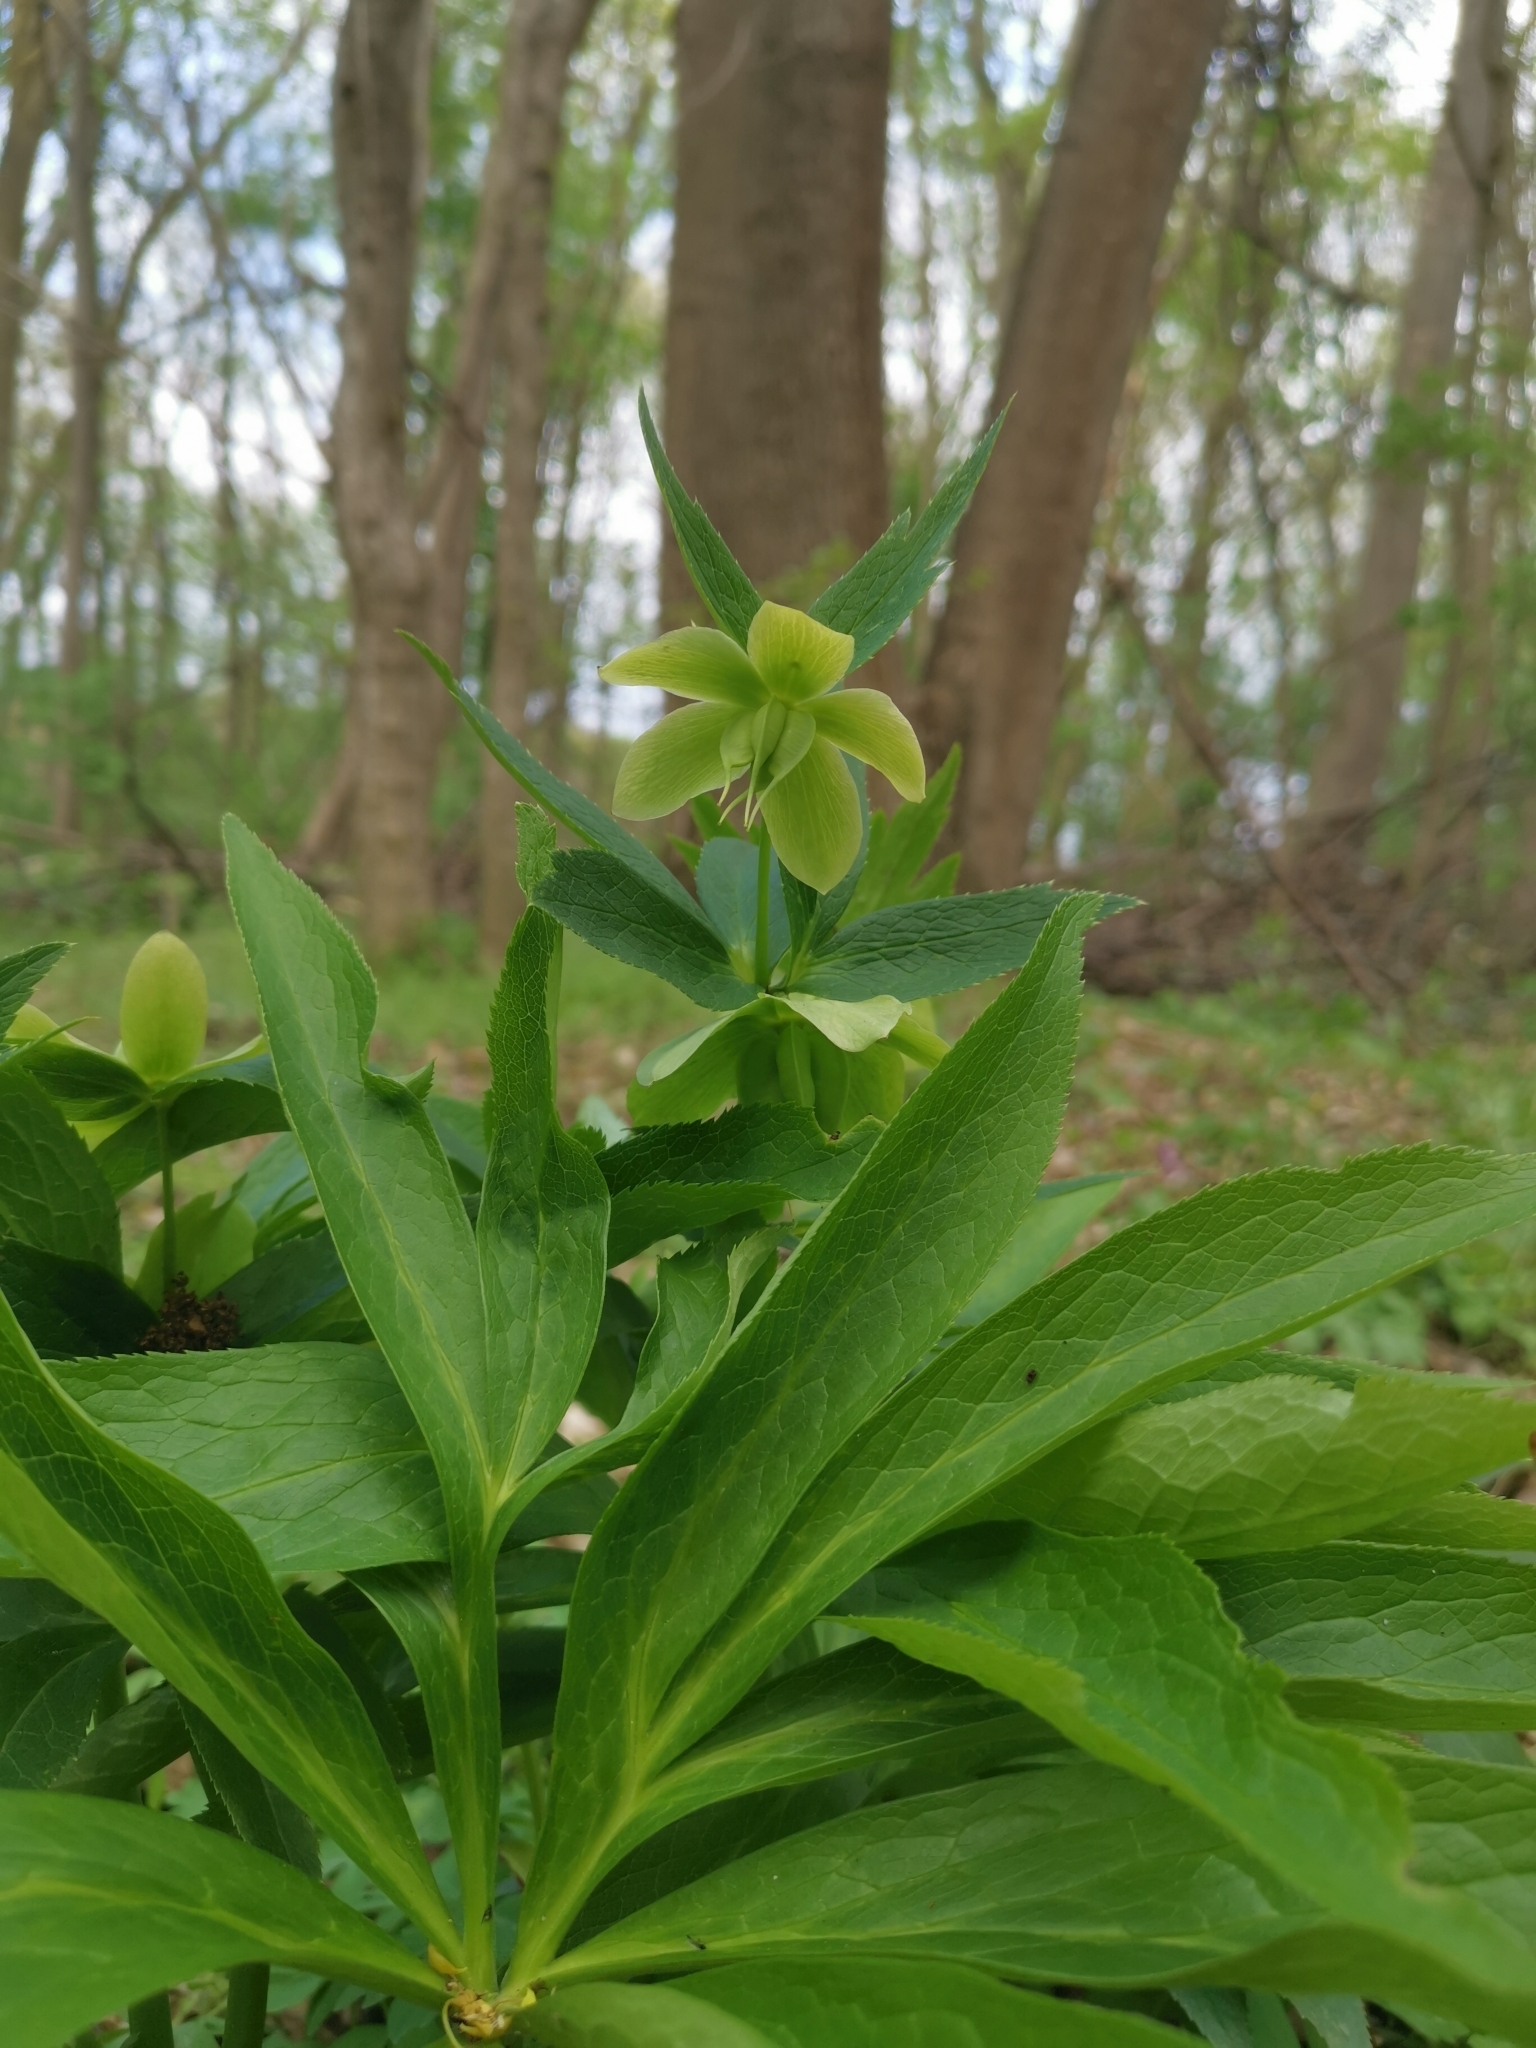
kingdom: Plantae
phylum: Tracheophyta
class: Magnoliopsida
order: Ranunculales
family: Ranunculaceae
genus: Helleborus
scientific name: Helleborus hybridus
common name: Hybrid lenten-rose
